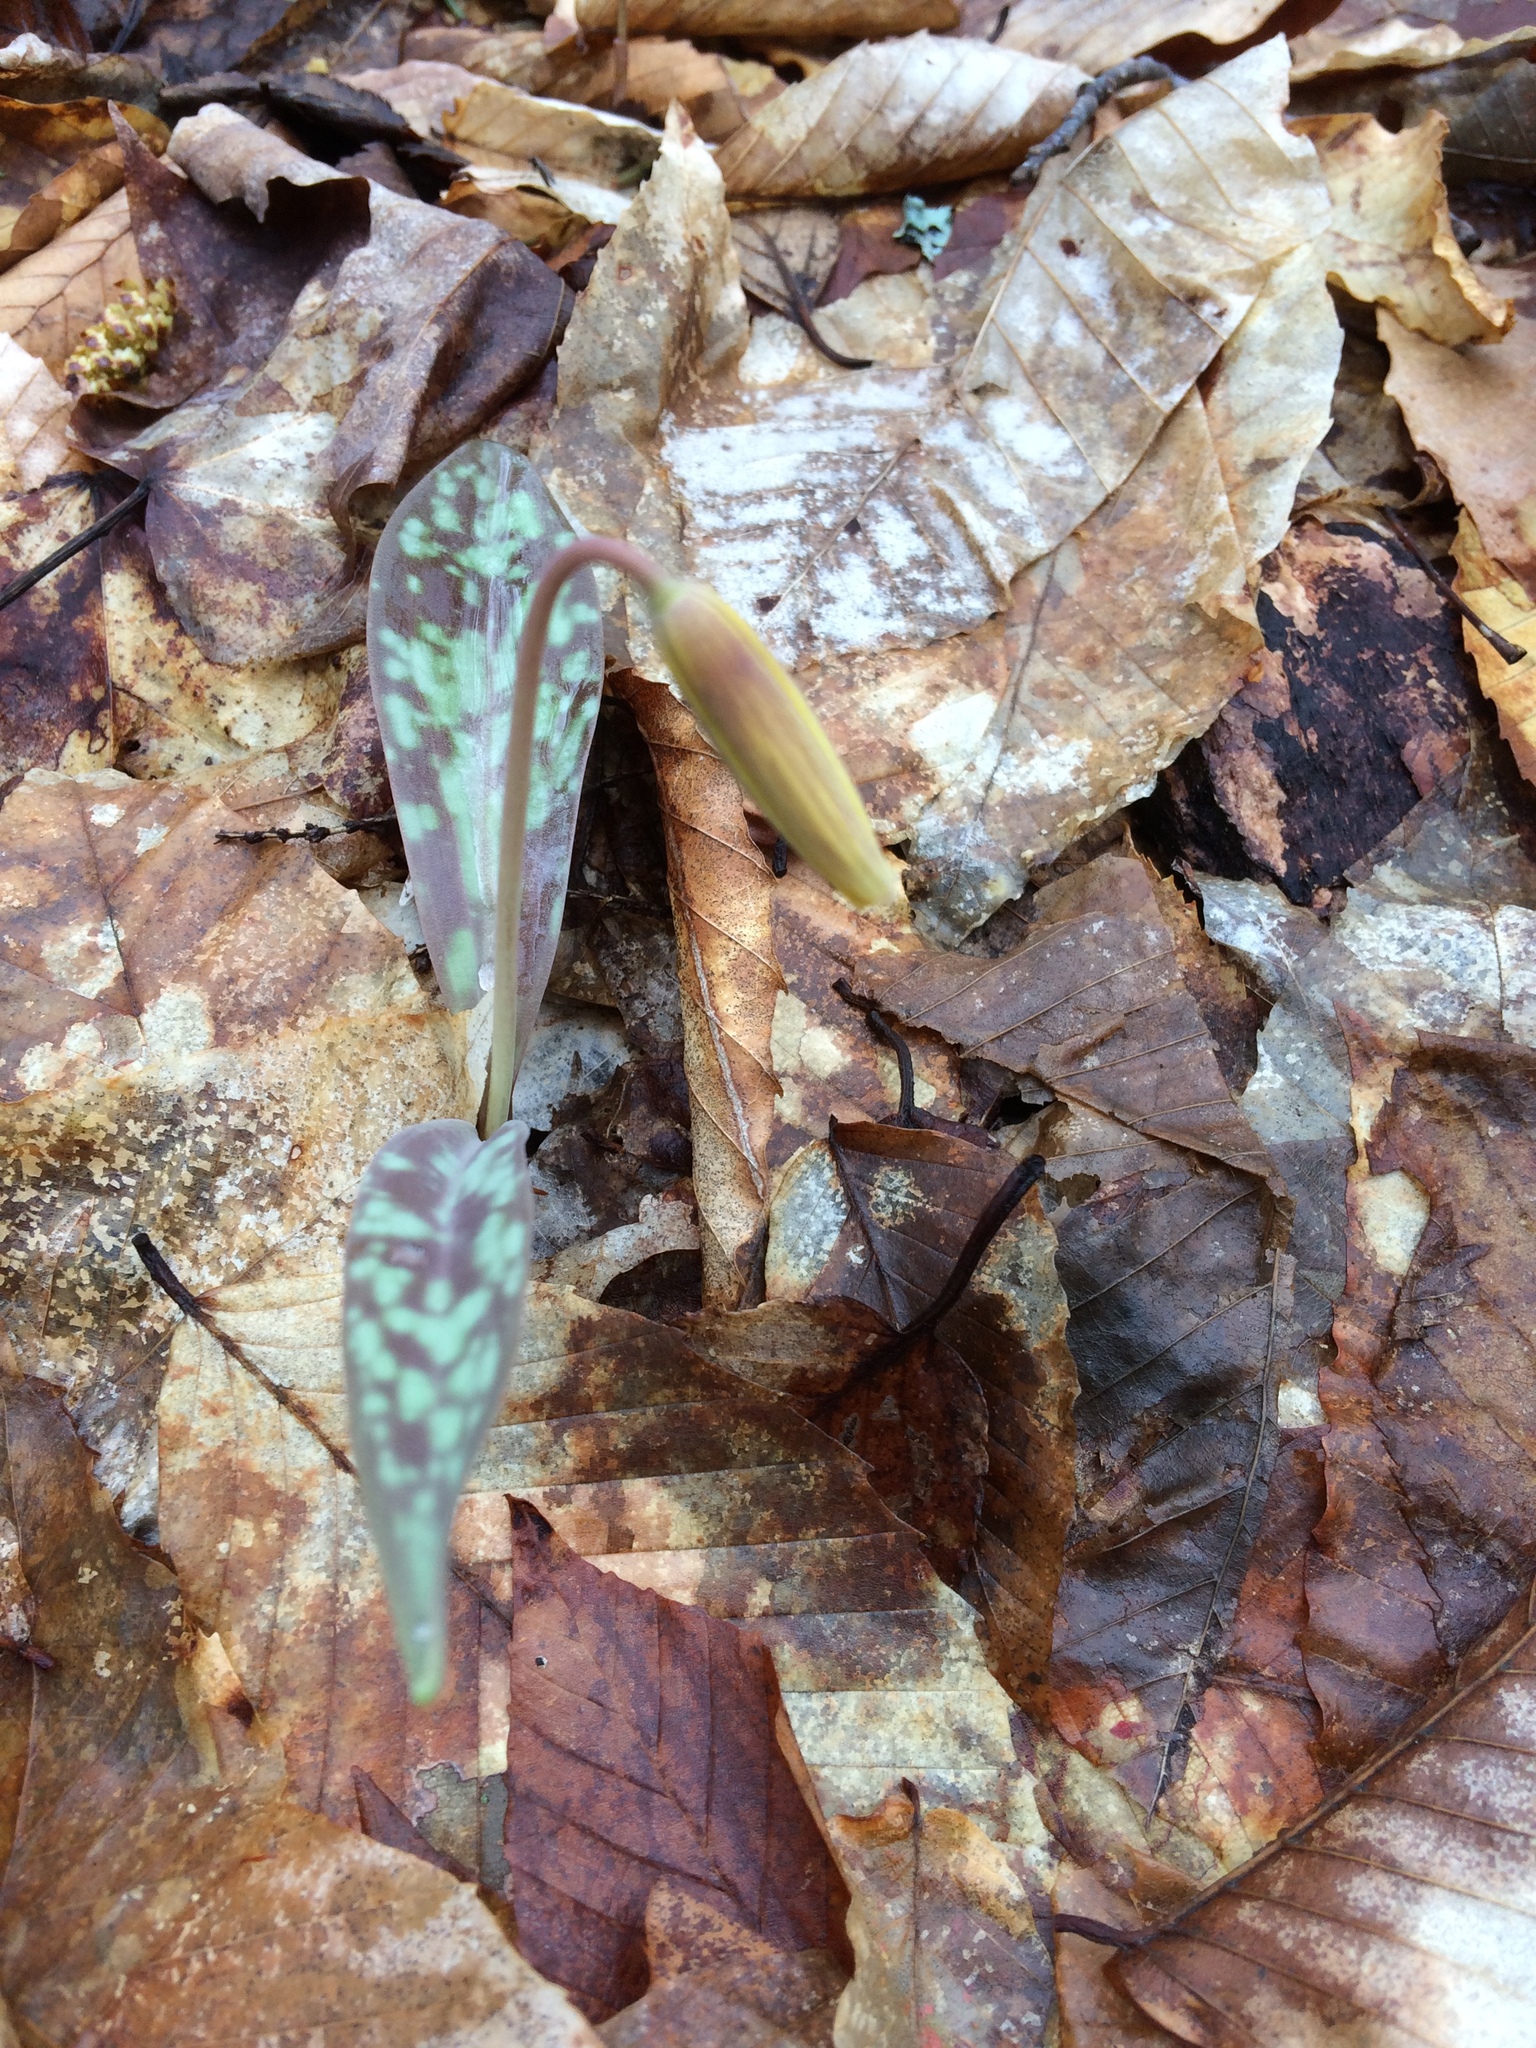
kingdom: Plantae
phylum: Tracheophyta
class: Liliopsida
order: Liliales
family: Liliaceae
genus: Erythronium
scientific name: Erythronium americanum
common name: Yellow adder's-tongue
